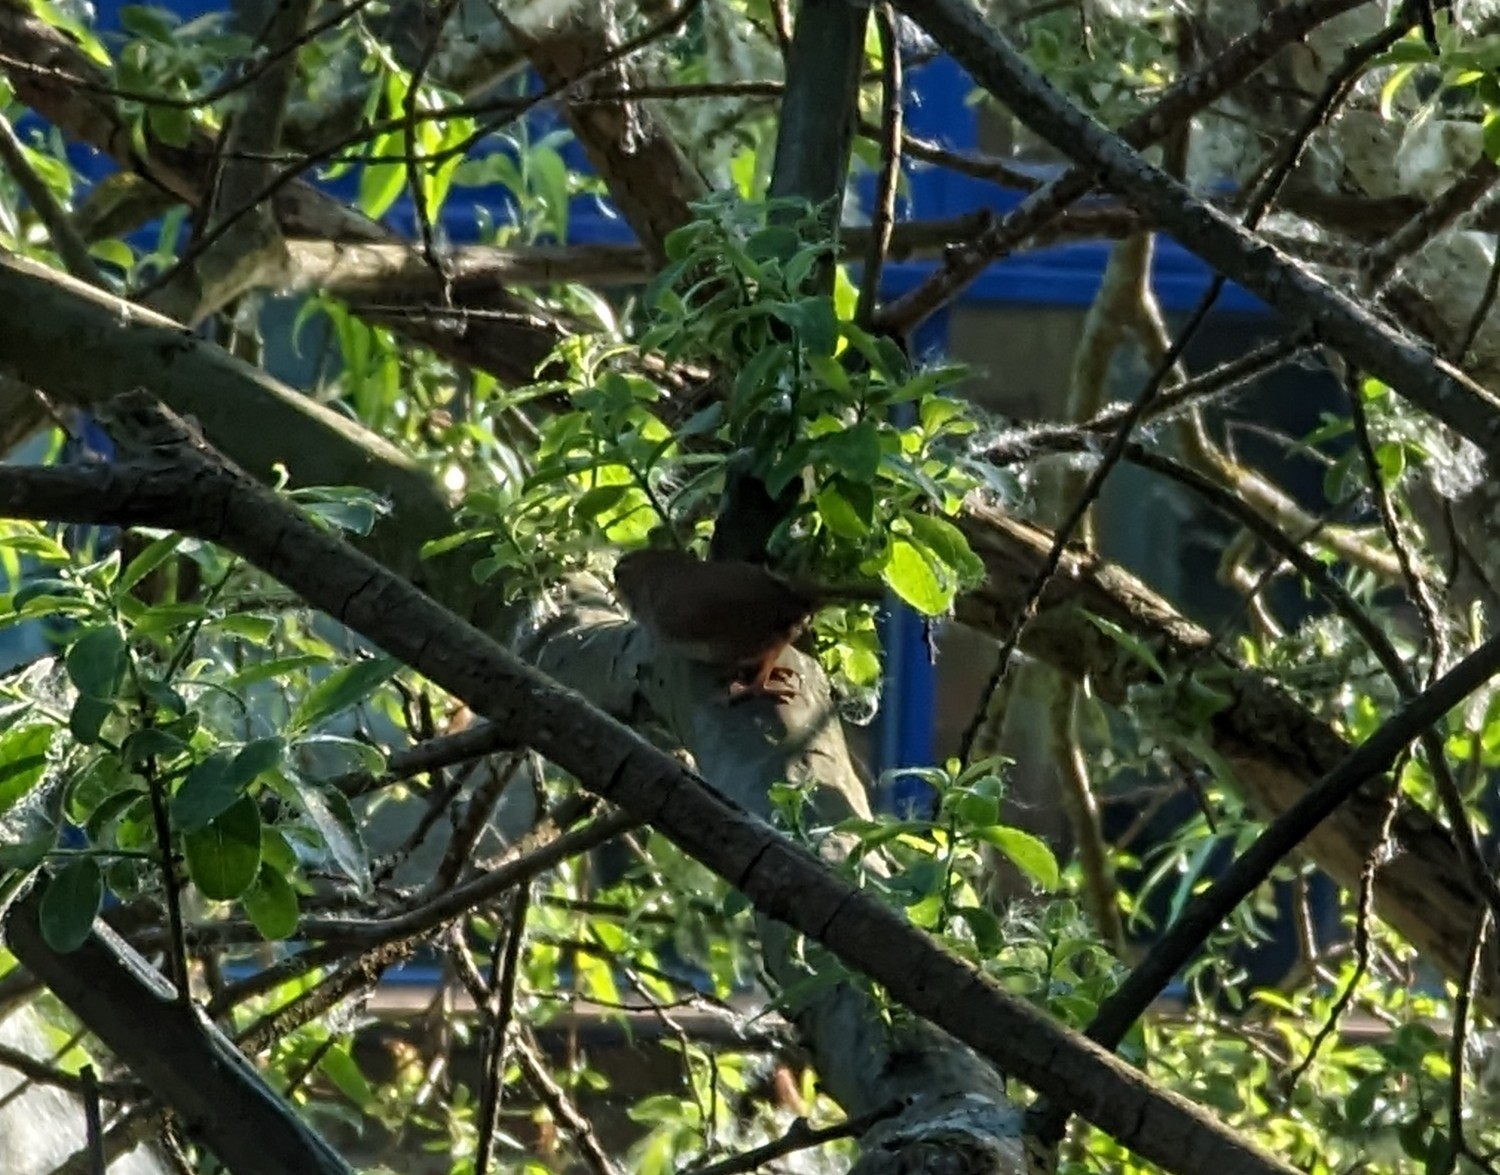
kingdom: Animalia
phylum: Chordata
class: Aves
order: Passeriformes
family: Troglodytidae
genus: Troglodytes
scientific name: Troglodytes troglodytes
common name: Eurasian wren
